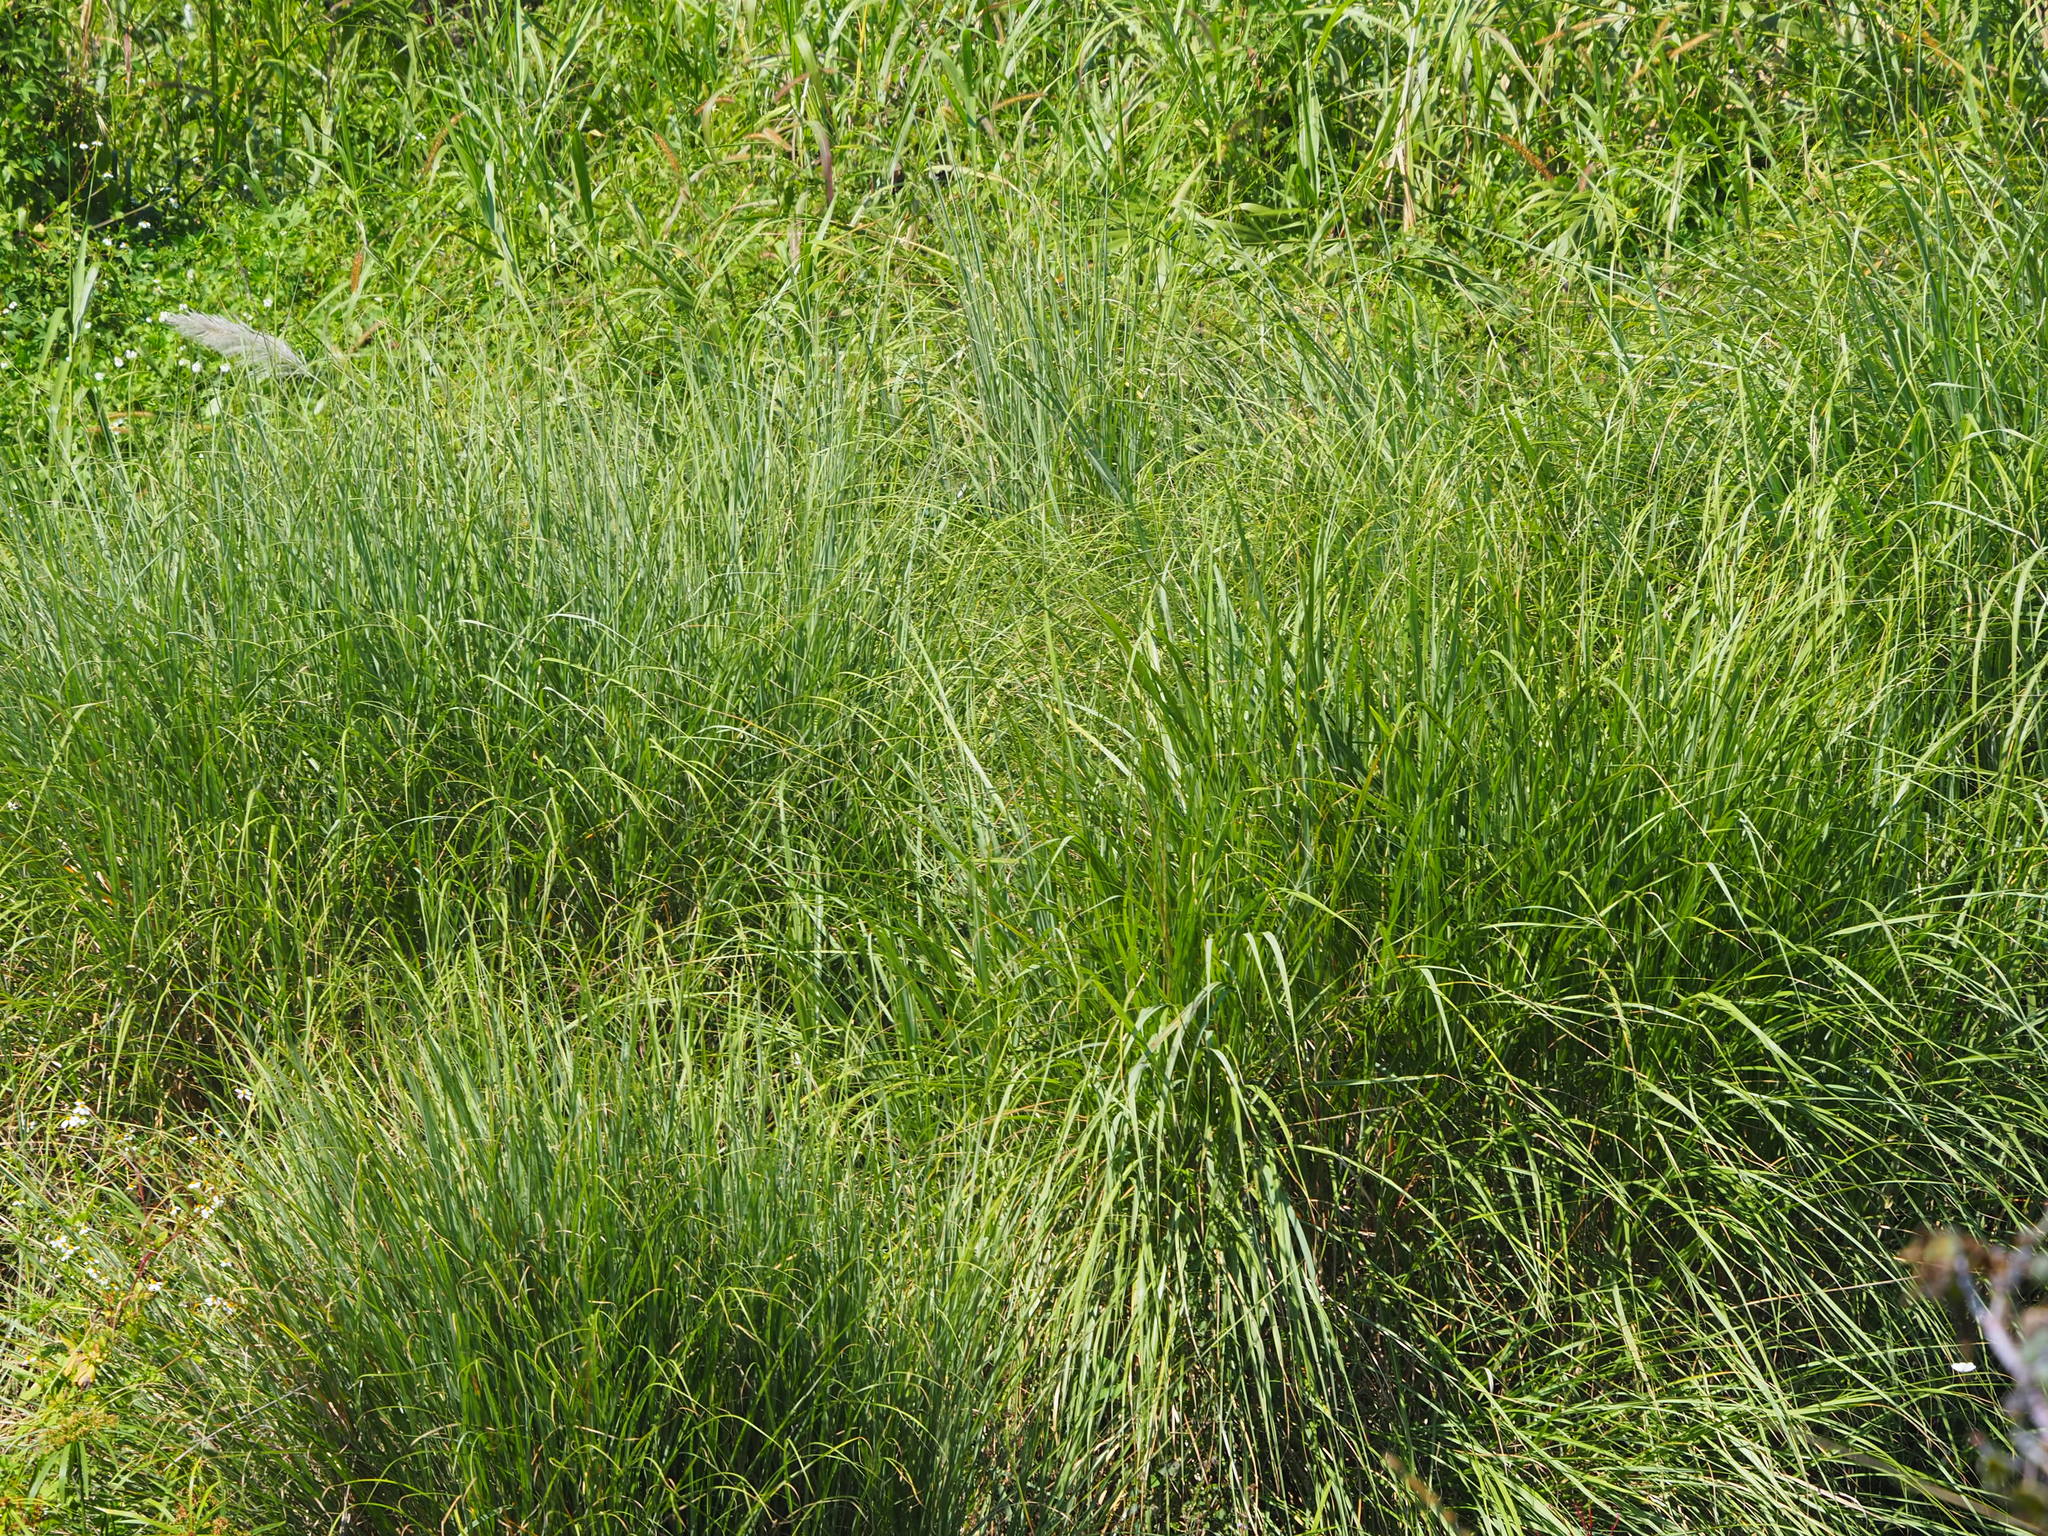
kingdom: Plantae
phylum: Tracheophyta
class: Liliopsida
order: Poales
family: Poaceae
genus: Saccharum
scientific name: Saccharum spontaneum
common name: Wild sugarcane
